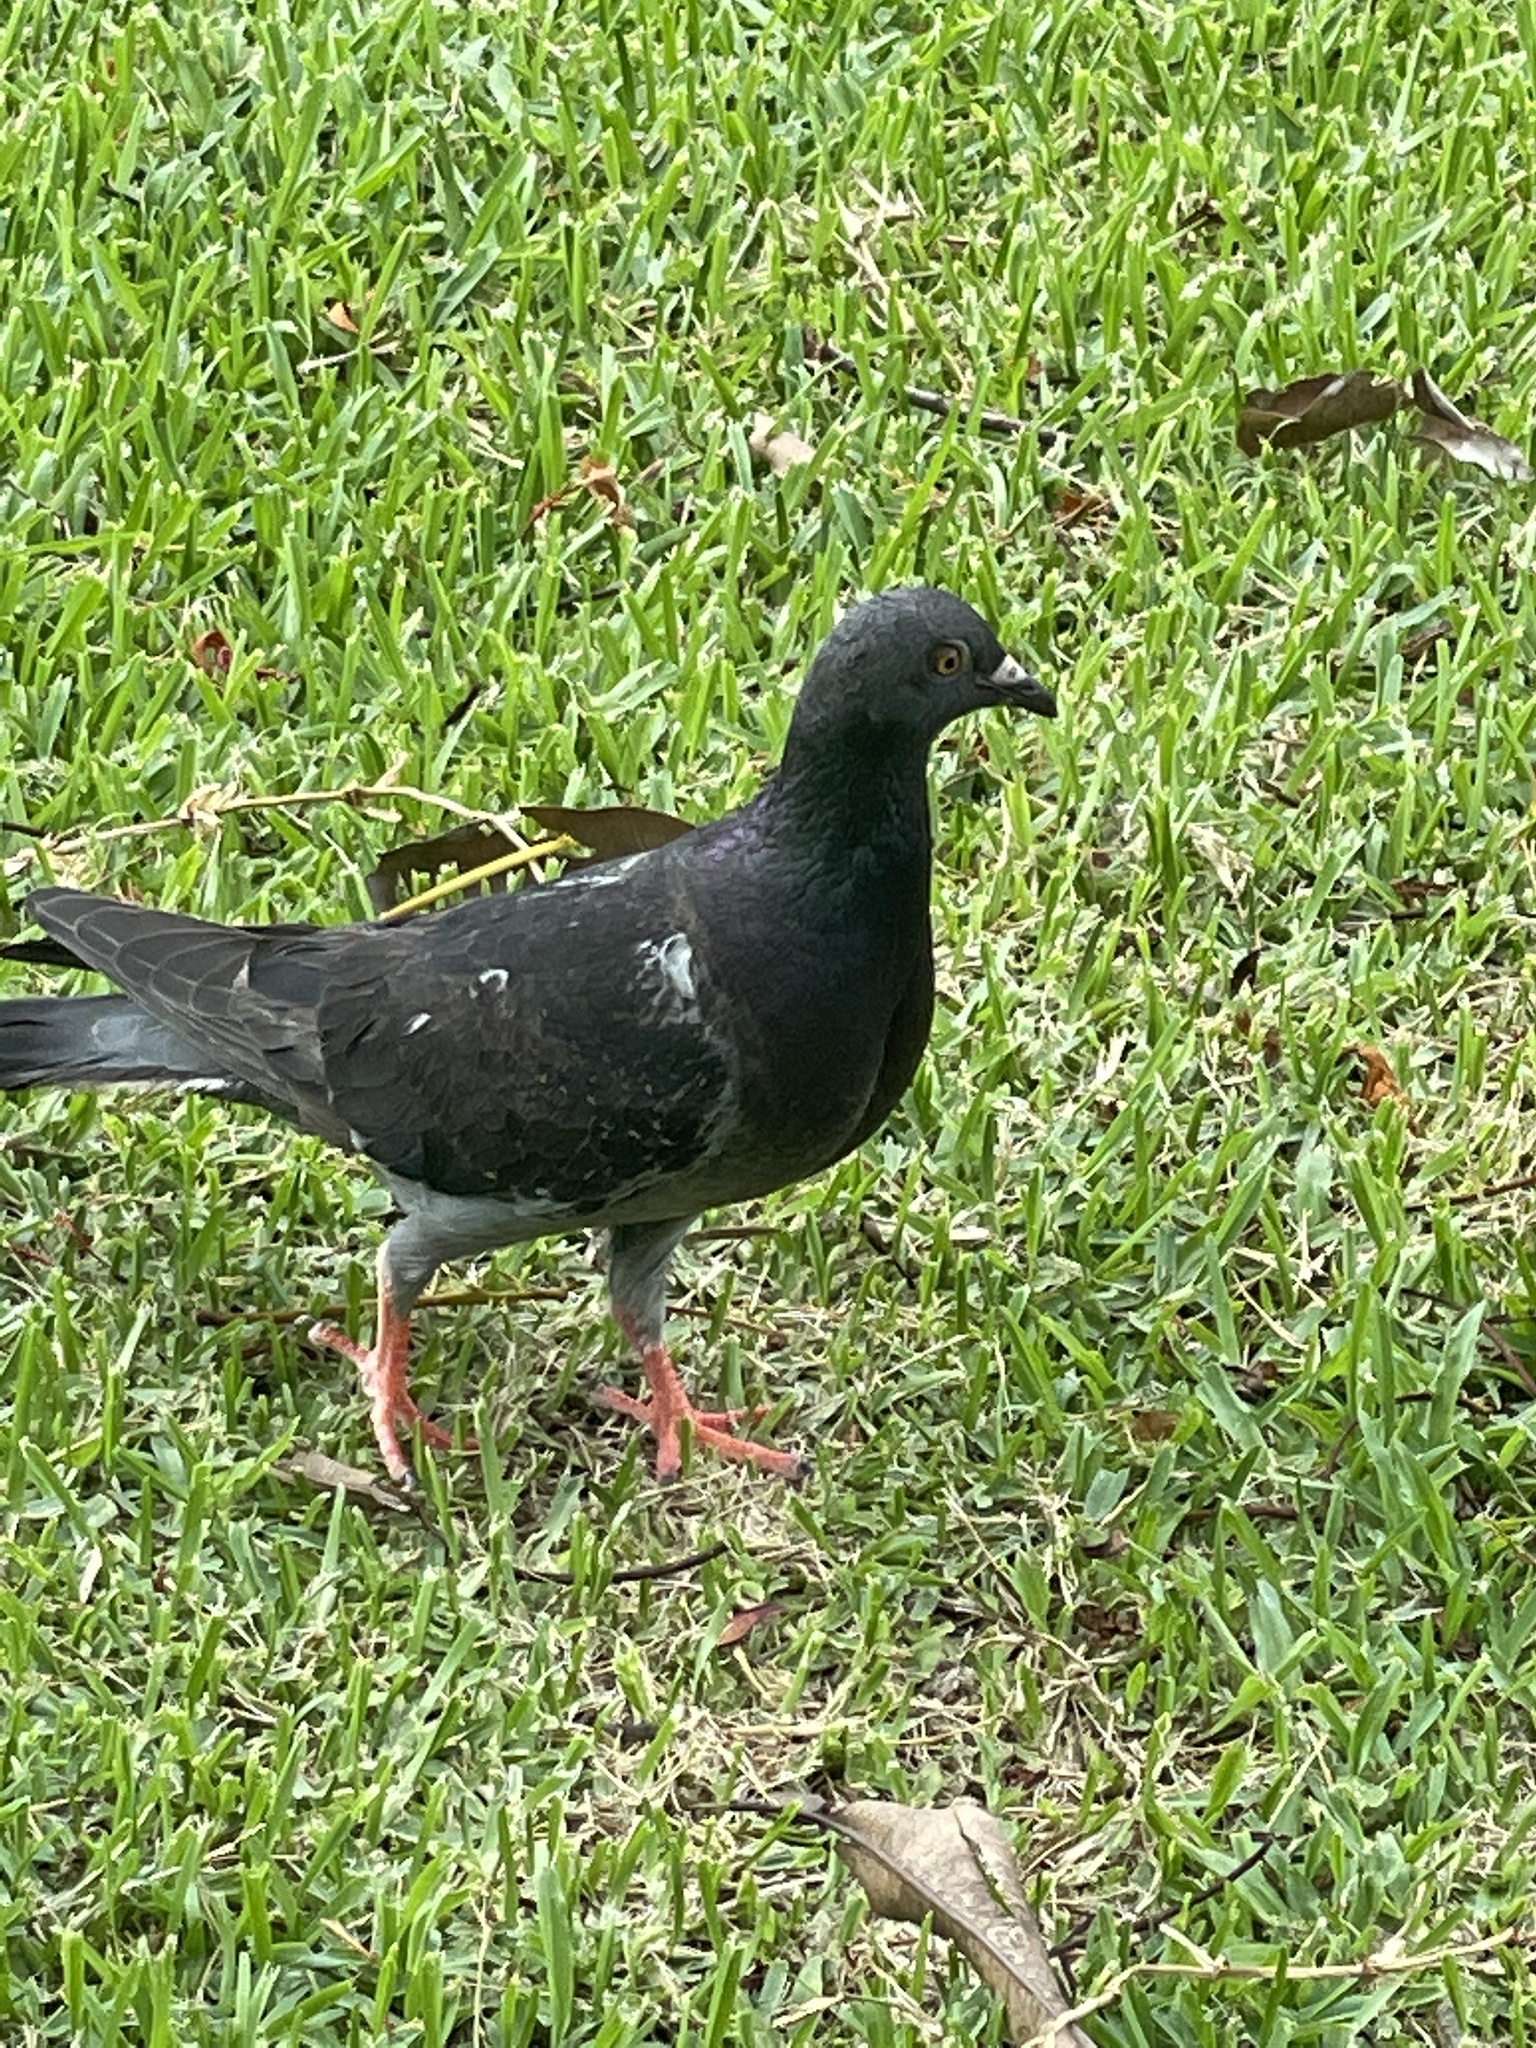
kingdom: Animalia
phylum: Chordata
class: Aves
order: Columbiformes
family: Columbidae
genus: Columba
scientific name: Columba livia
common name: Rock pigeon
